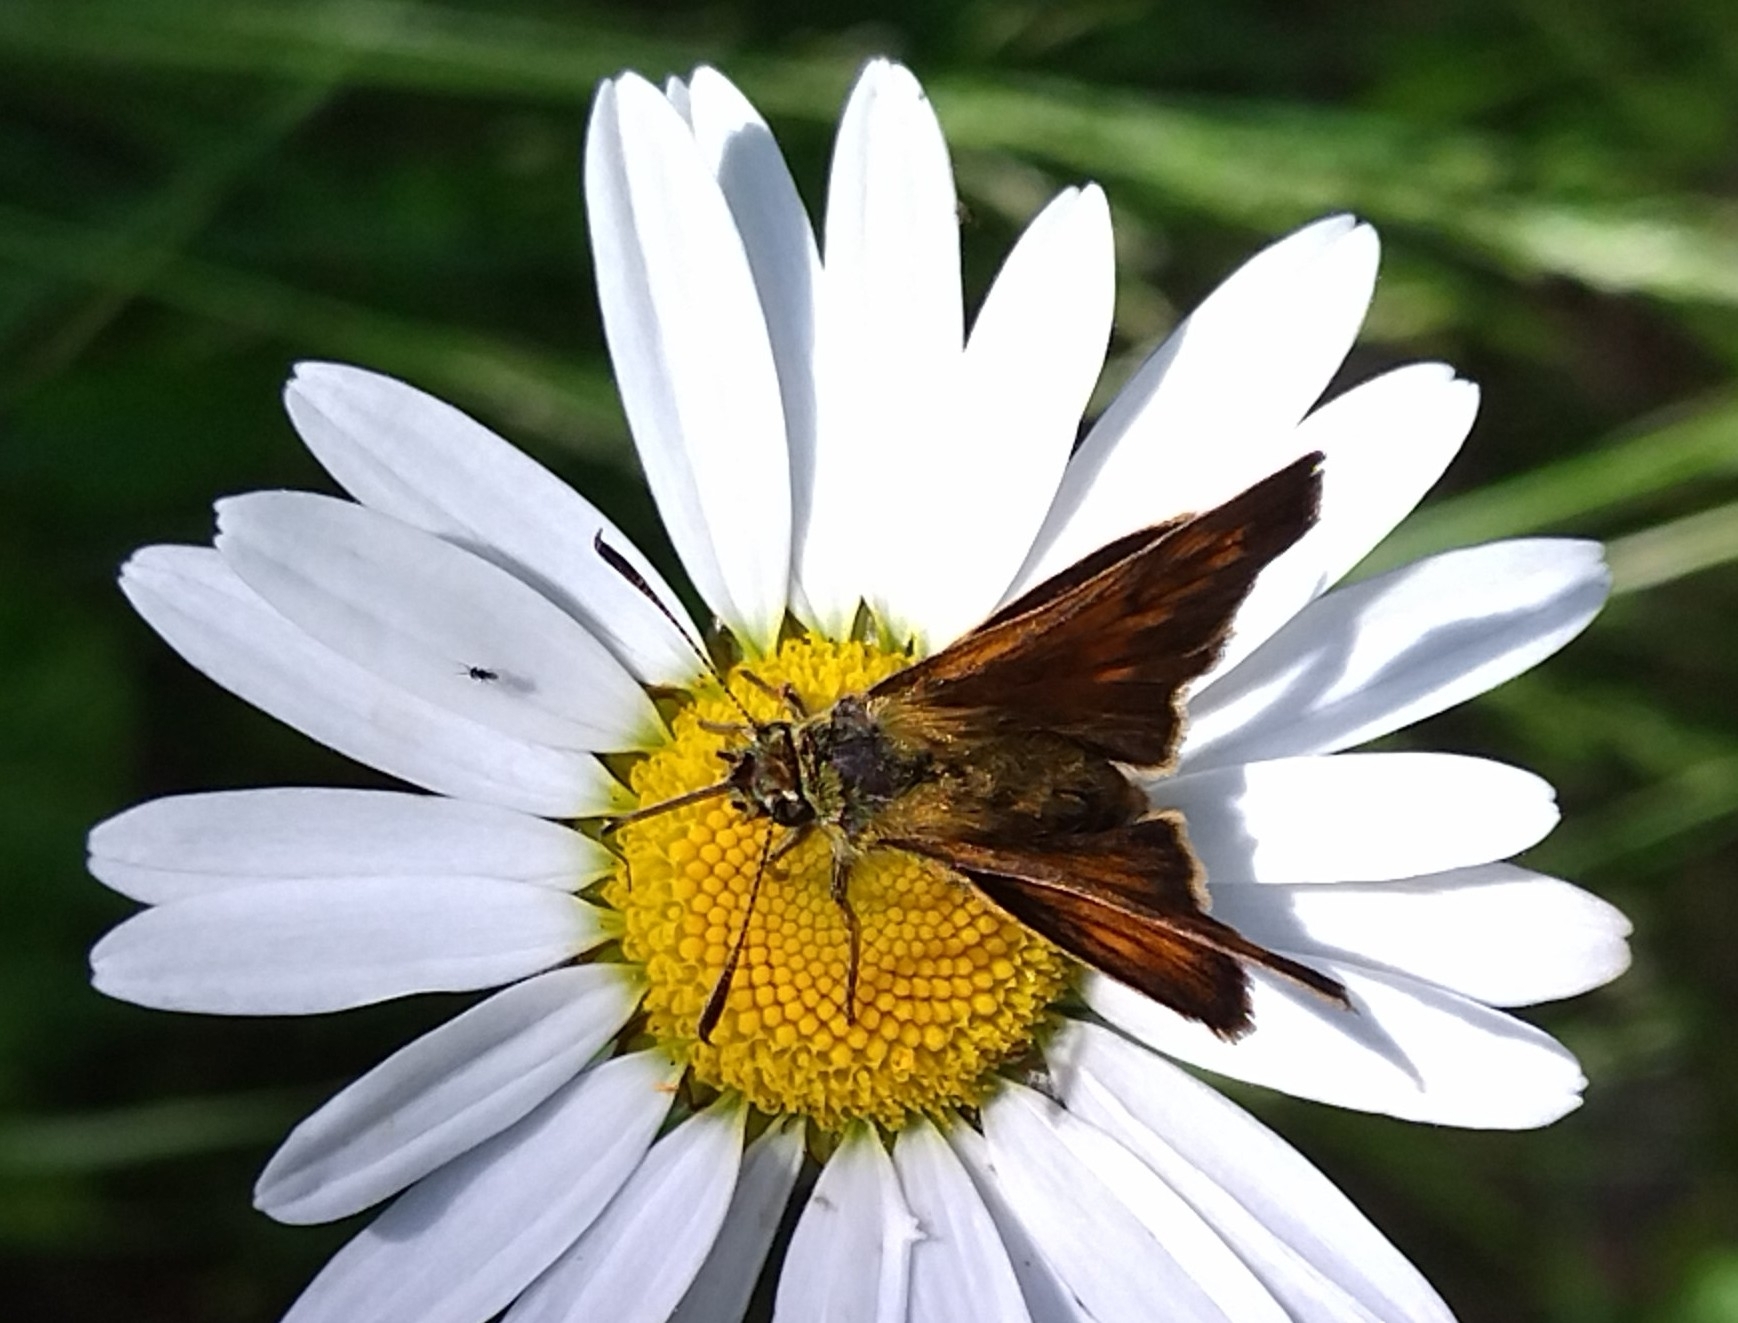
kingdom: Animalia
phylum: Arthropoda
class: Insecta
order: Lepidoptera
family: Hesperiidae
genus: Ochlodes
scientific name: Ochlodes venata
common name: Large skipper
